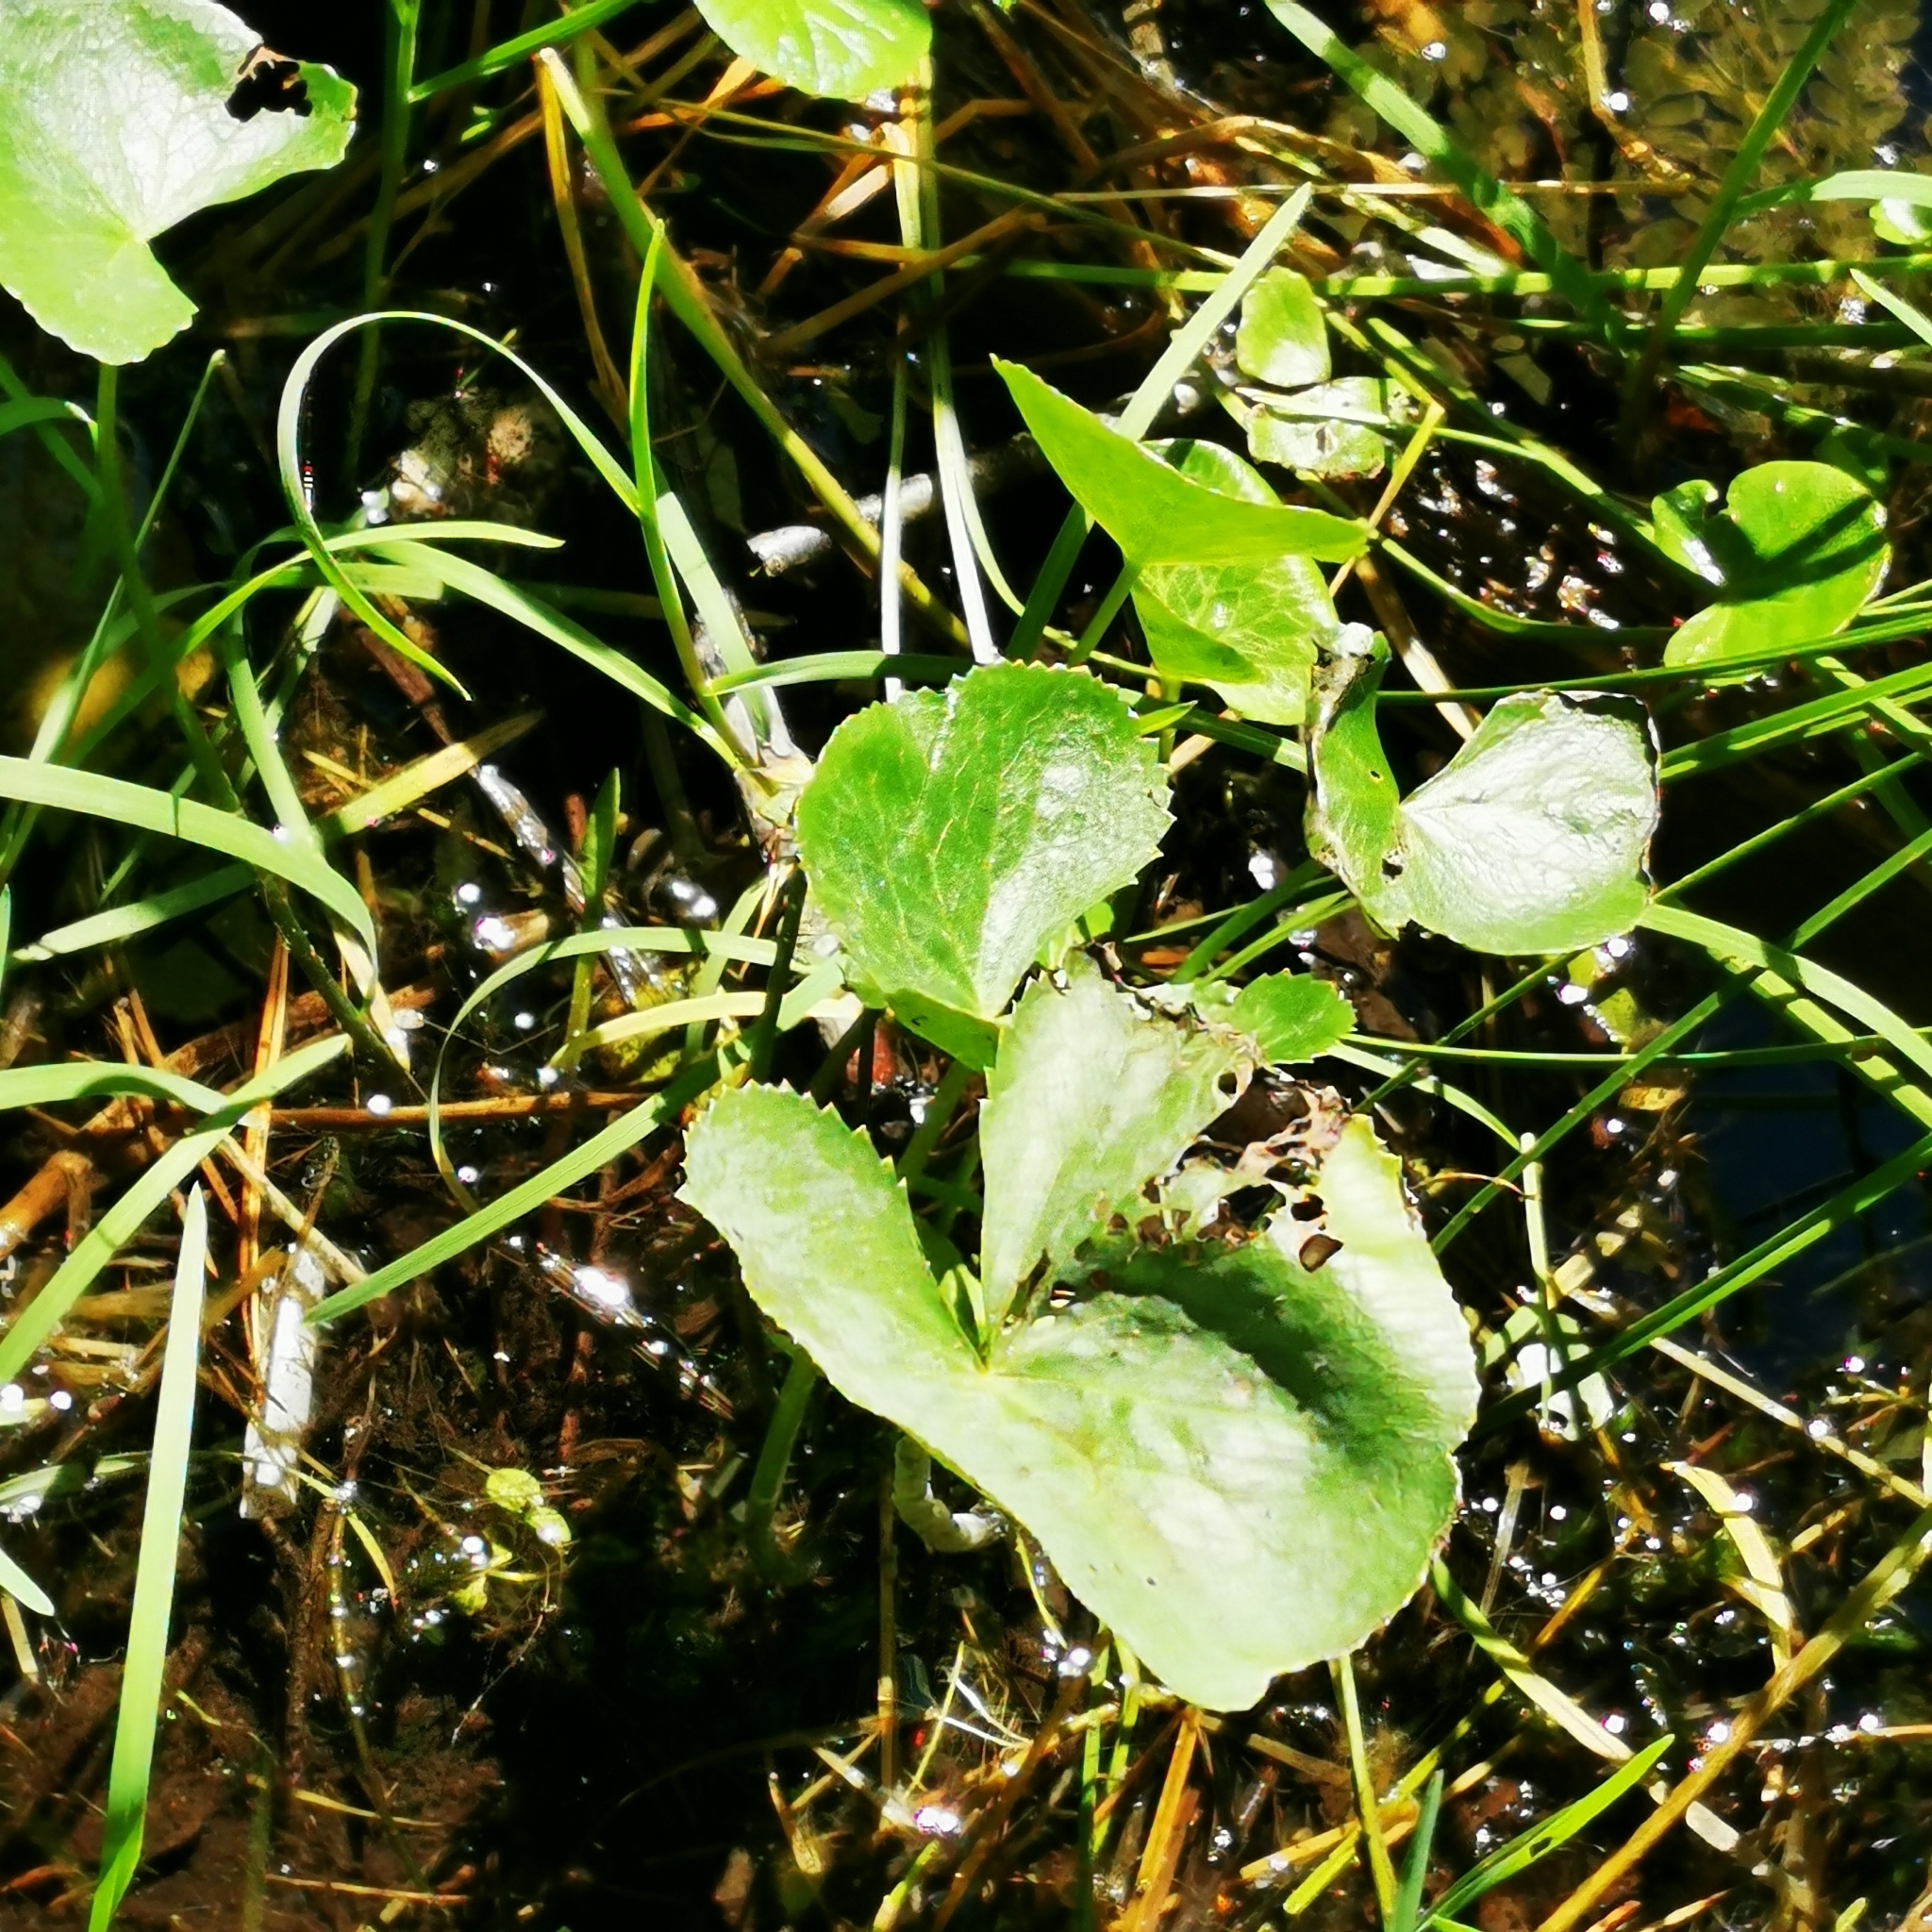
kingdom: Plantae
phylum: Tracheophyta
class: Magnoliopsida
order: Ranunculales
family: Ranunculaceae
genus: Caltha
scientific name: Caltha palustris
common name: Marsh marigold
